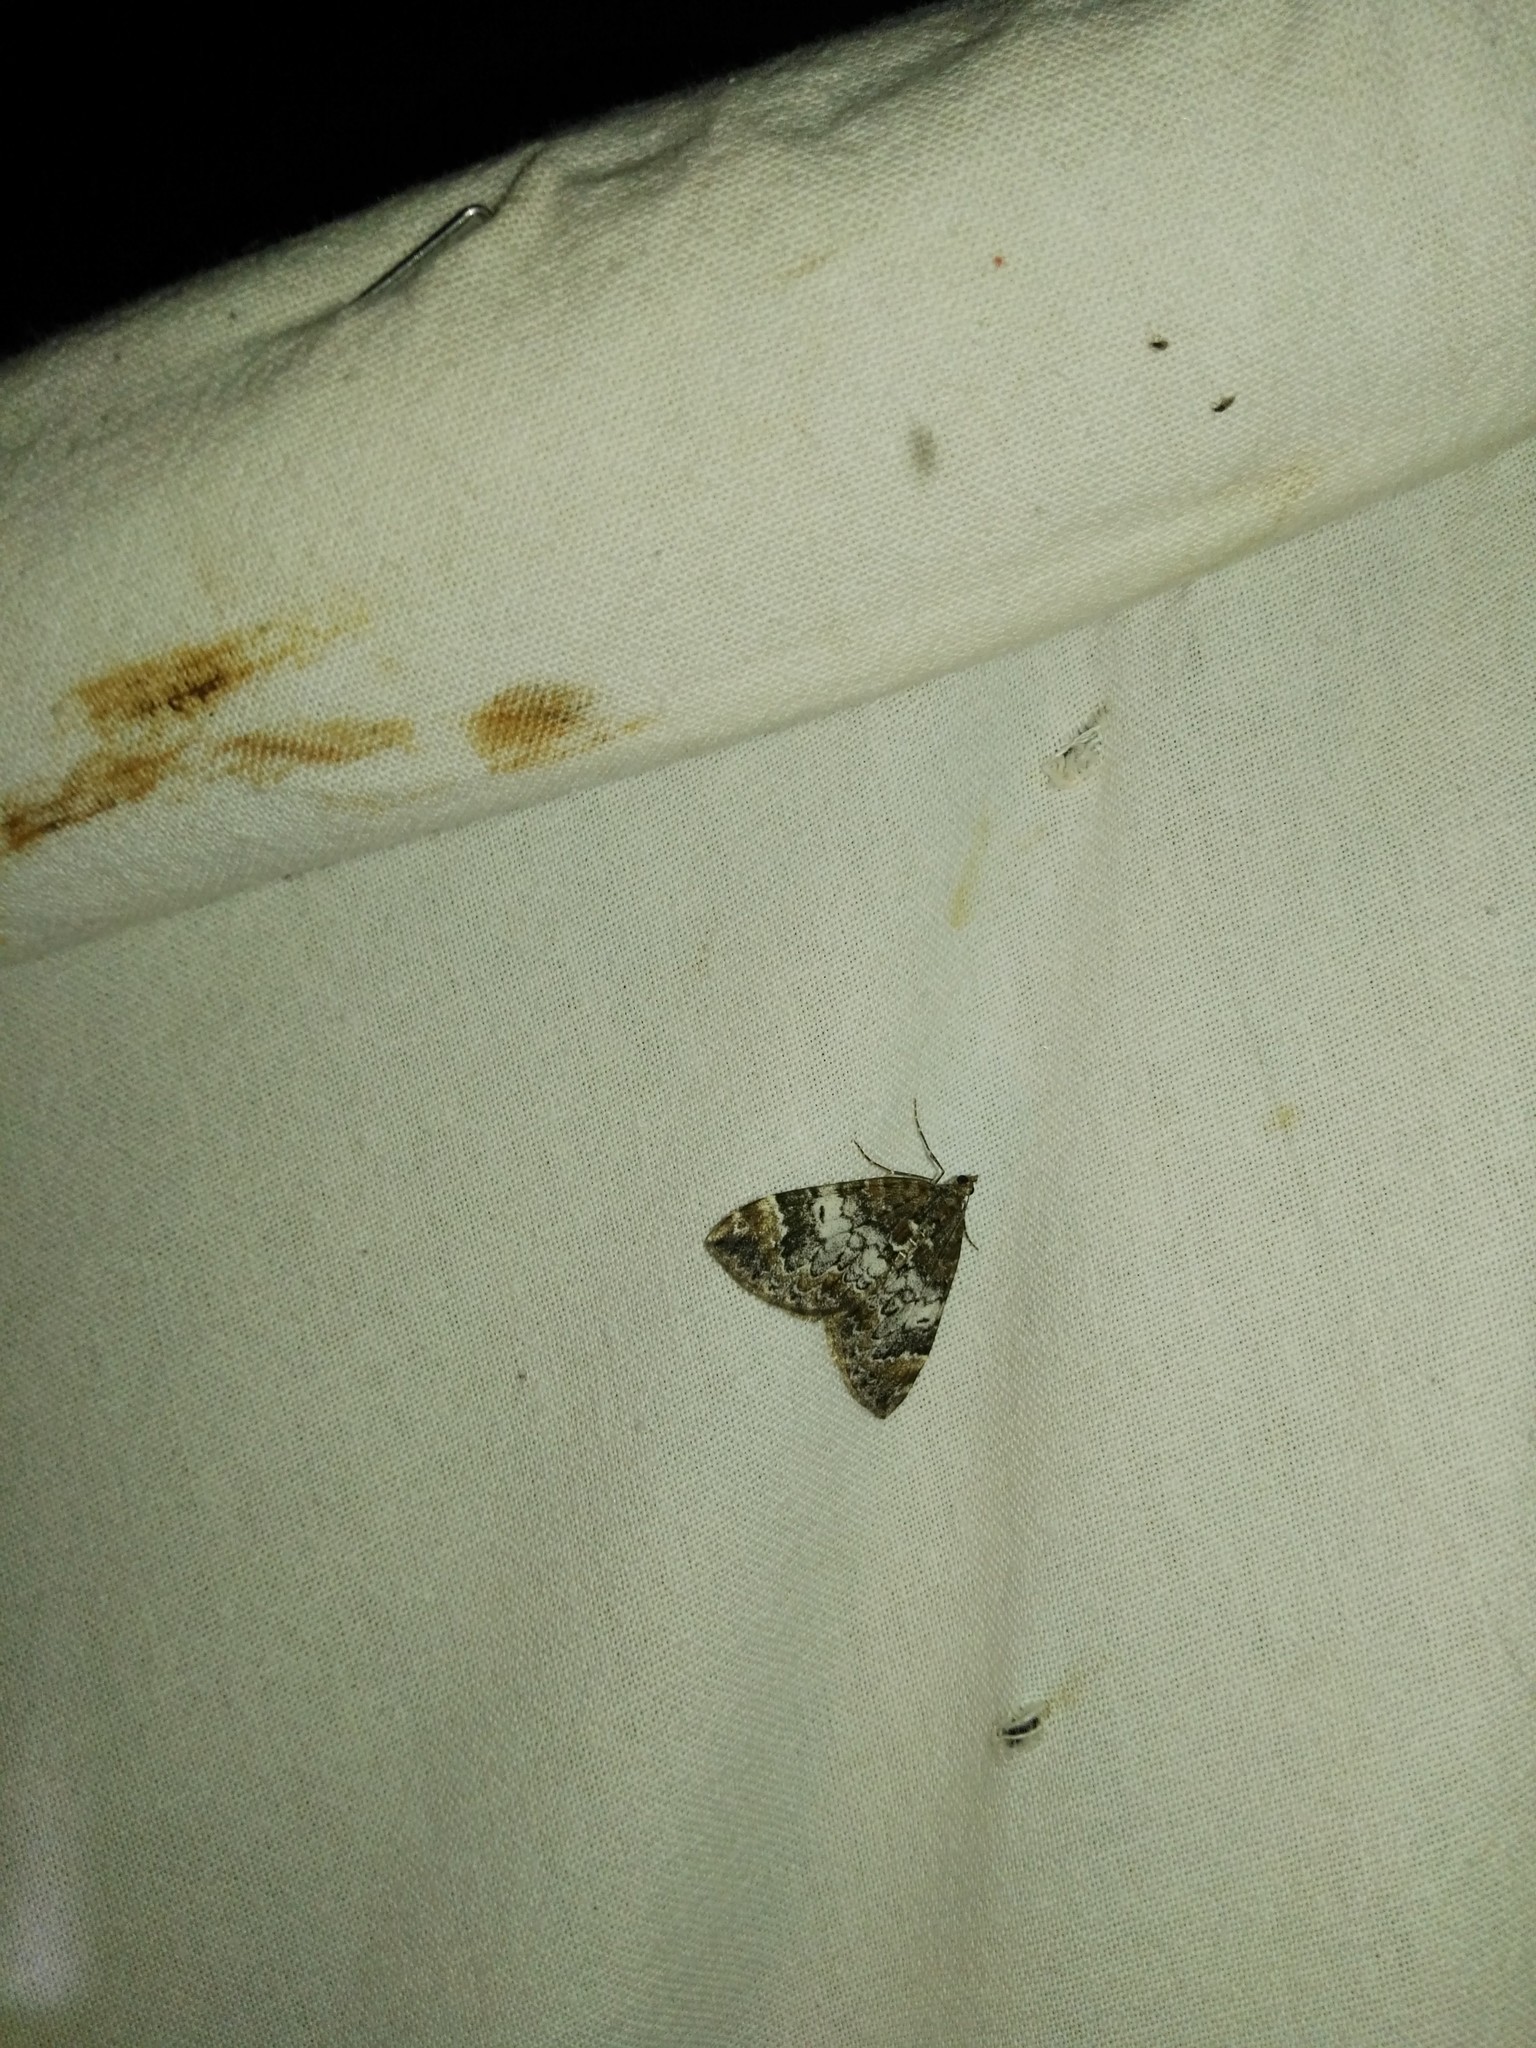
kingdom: Animalia
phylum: Arthropoda
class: Insecta
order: Lepidoptera
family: Geometridae
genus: Dysstroma
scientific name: Dysstroma truncata
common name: Common marbled carpet
